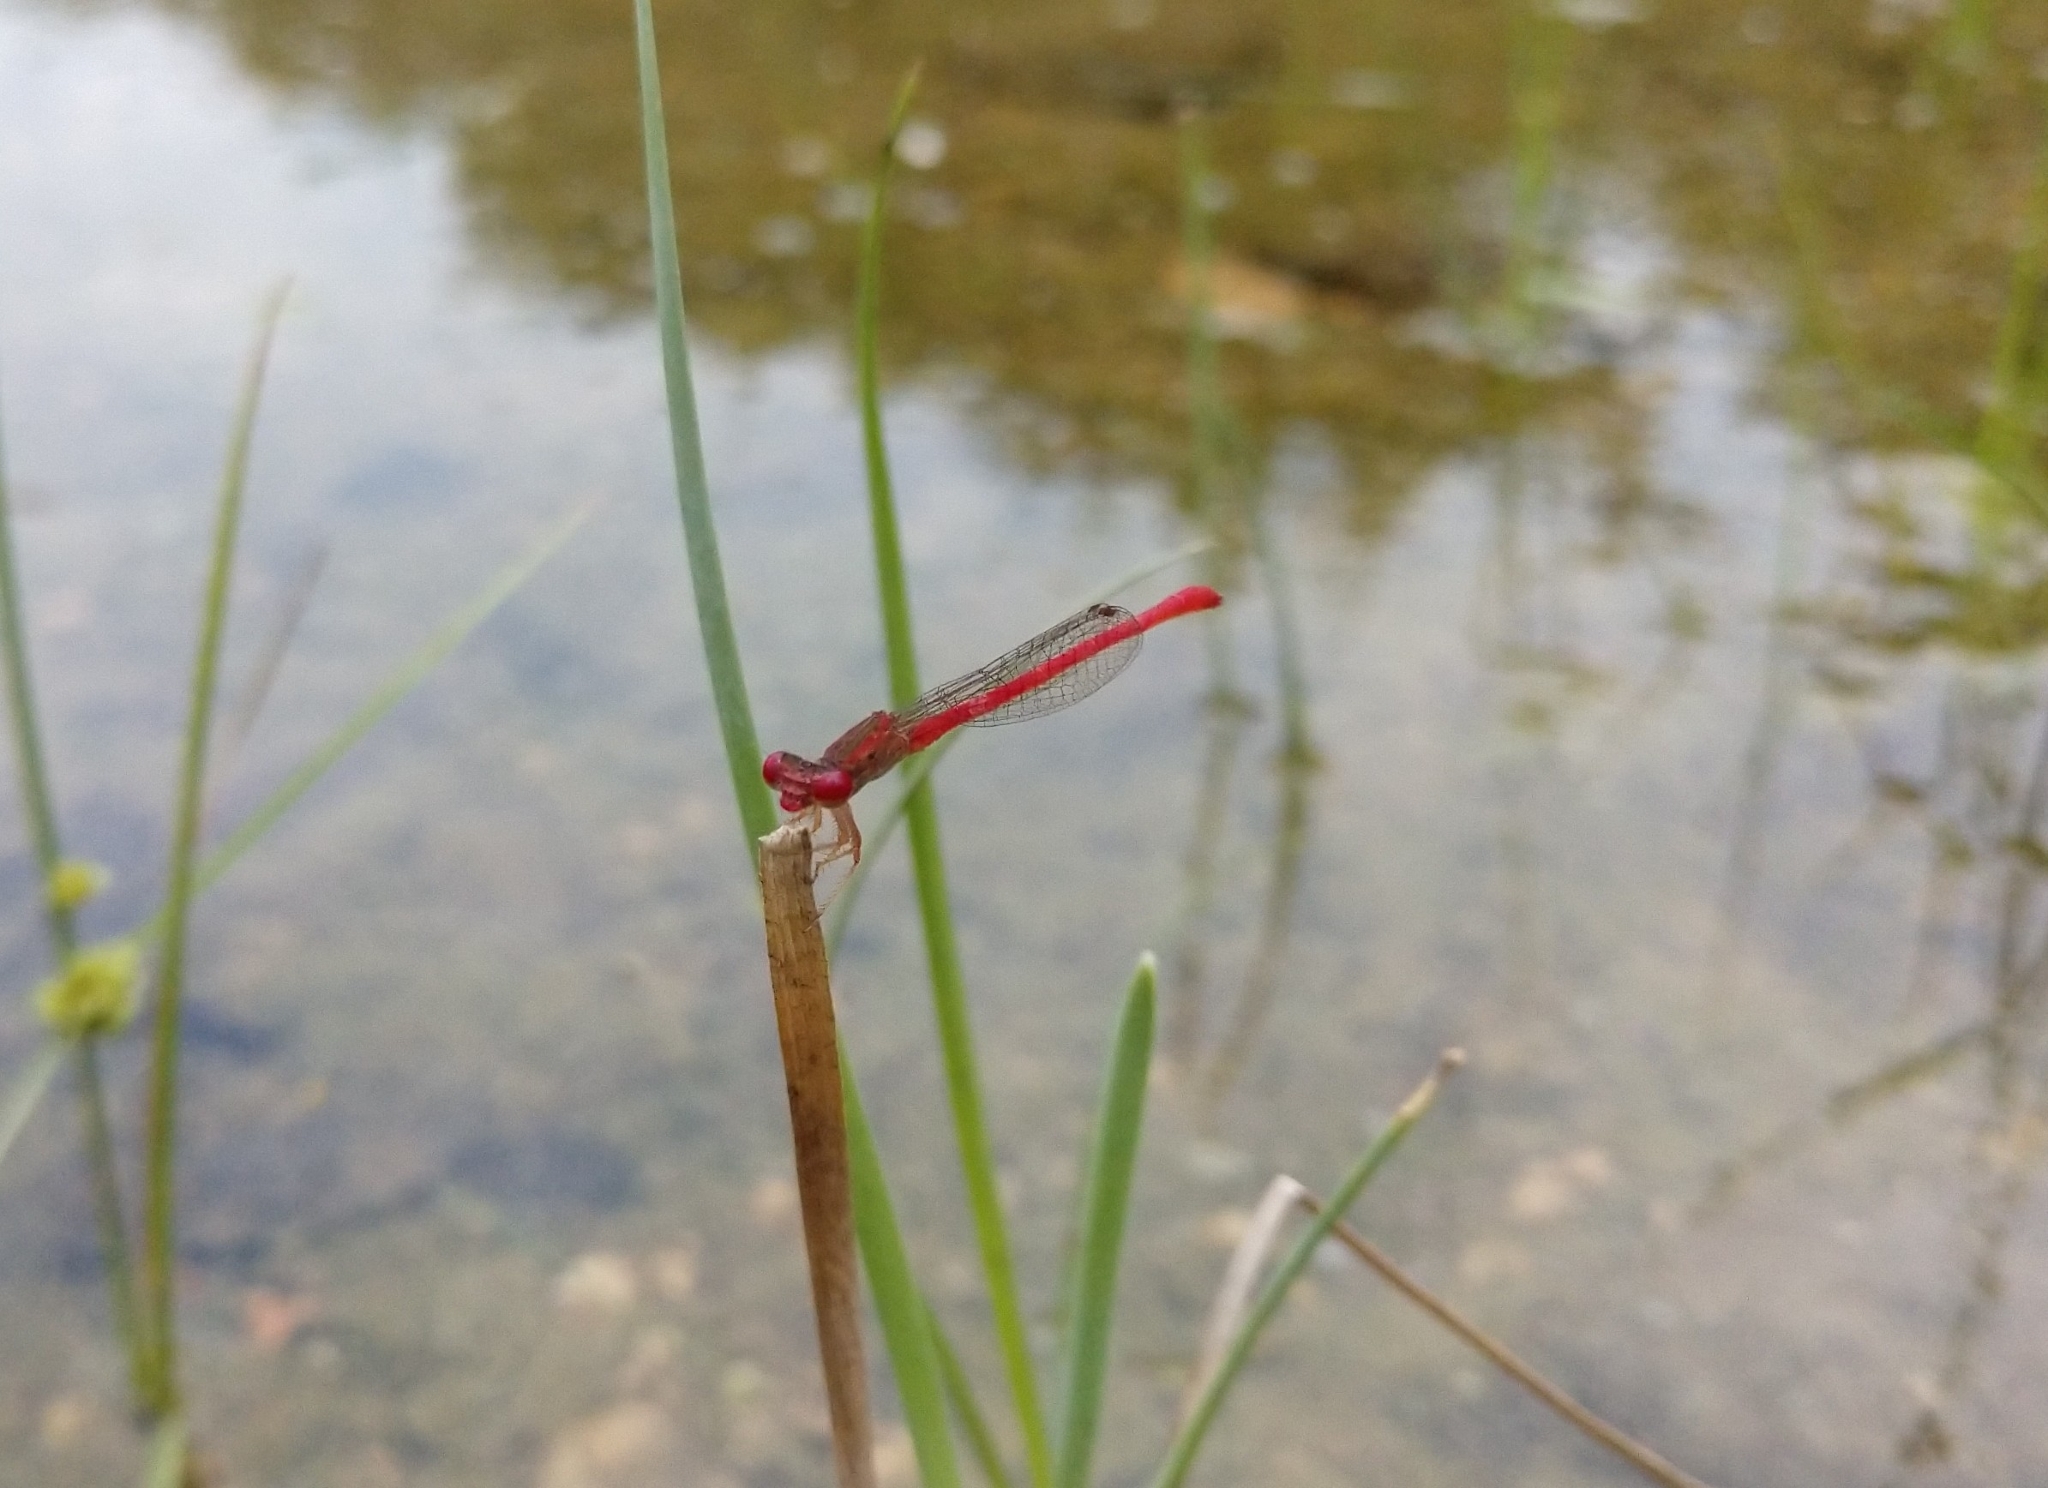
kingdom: Animalia
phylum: Arthropoda
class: Insecta
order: Odonata
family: Coenagrionidae
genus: Telebasis
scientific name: Telebasis salva
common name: Desert firetail
